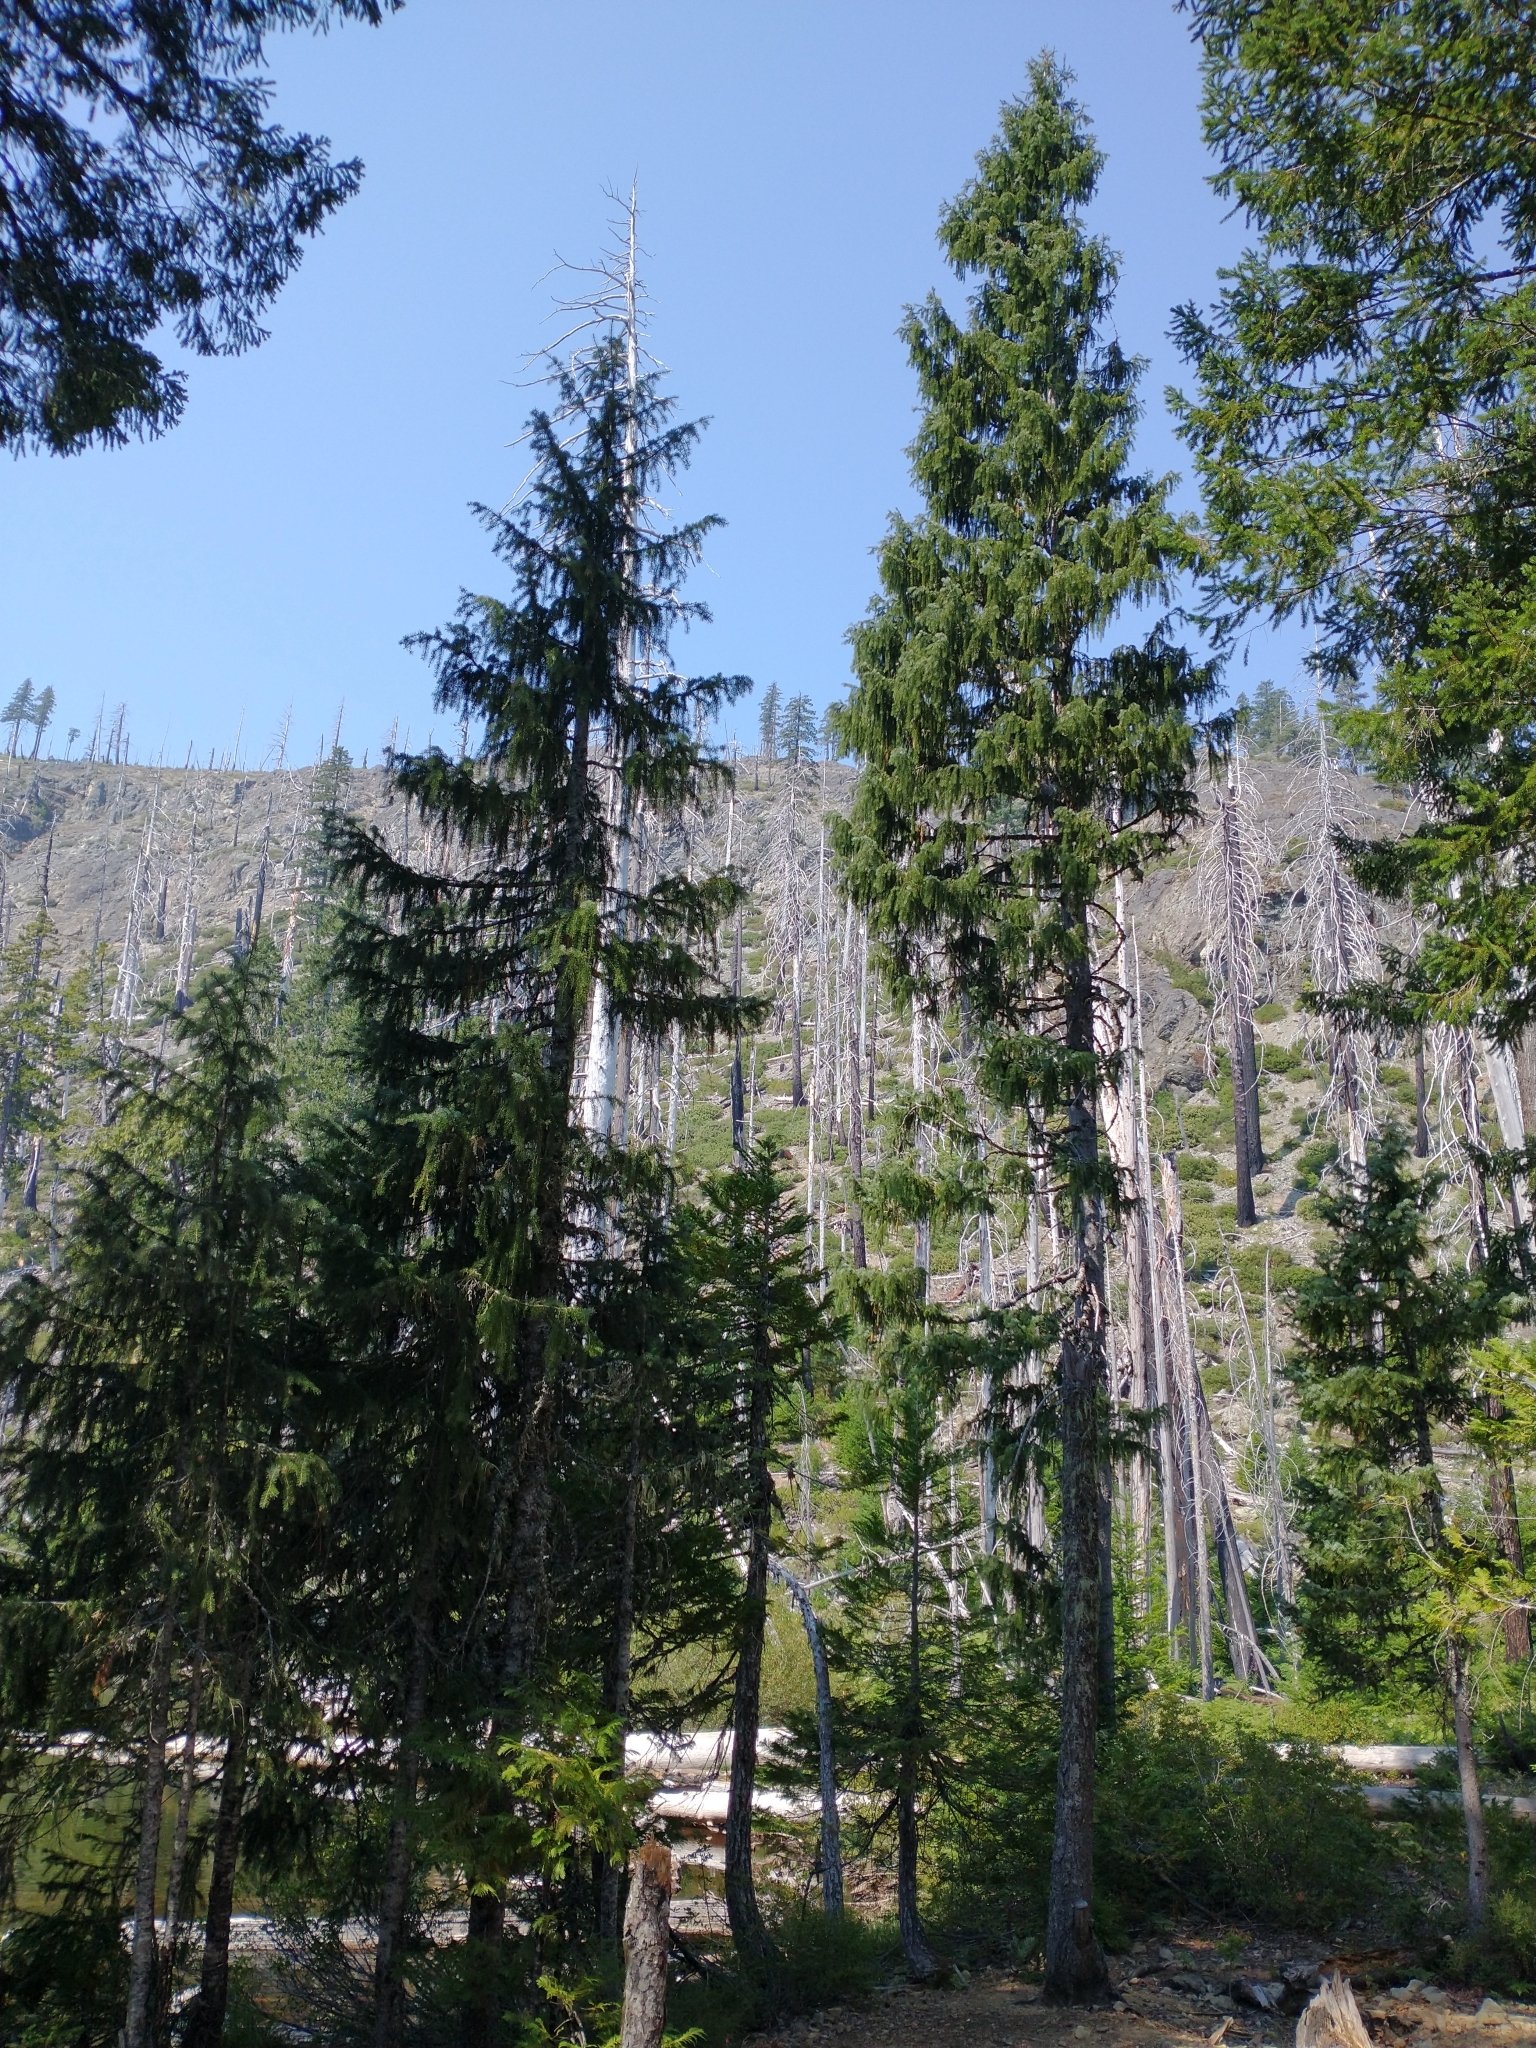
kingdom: Plantae
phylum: Tracheophyta
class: Pinopsida
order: Pinales
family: Pinaceae
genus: Picea
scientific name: Picea breweriana
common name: Brewer's spruce
